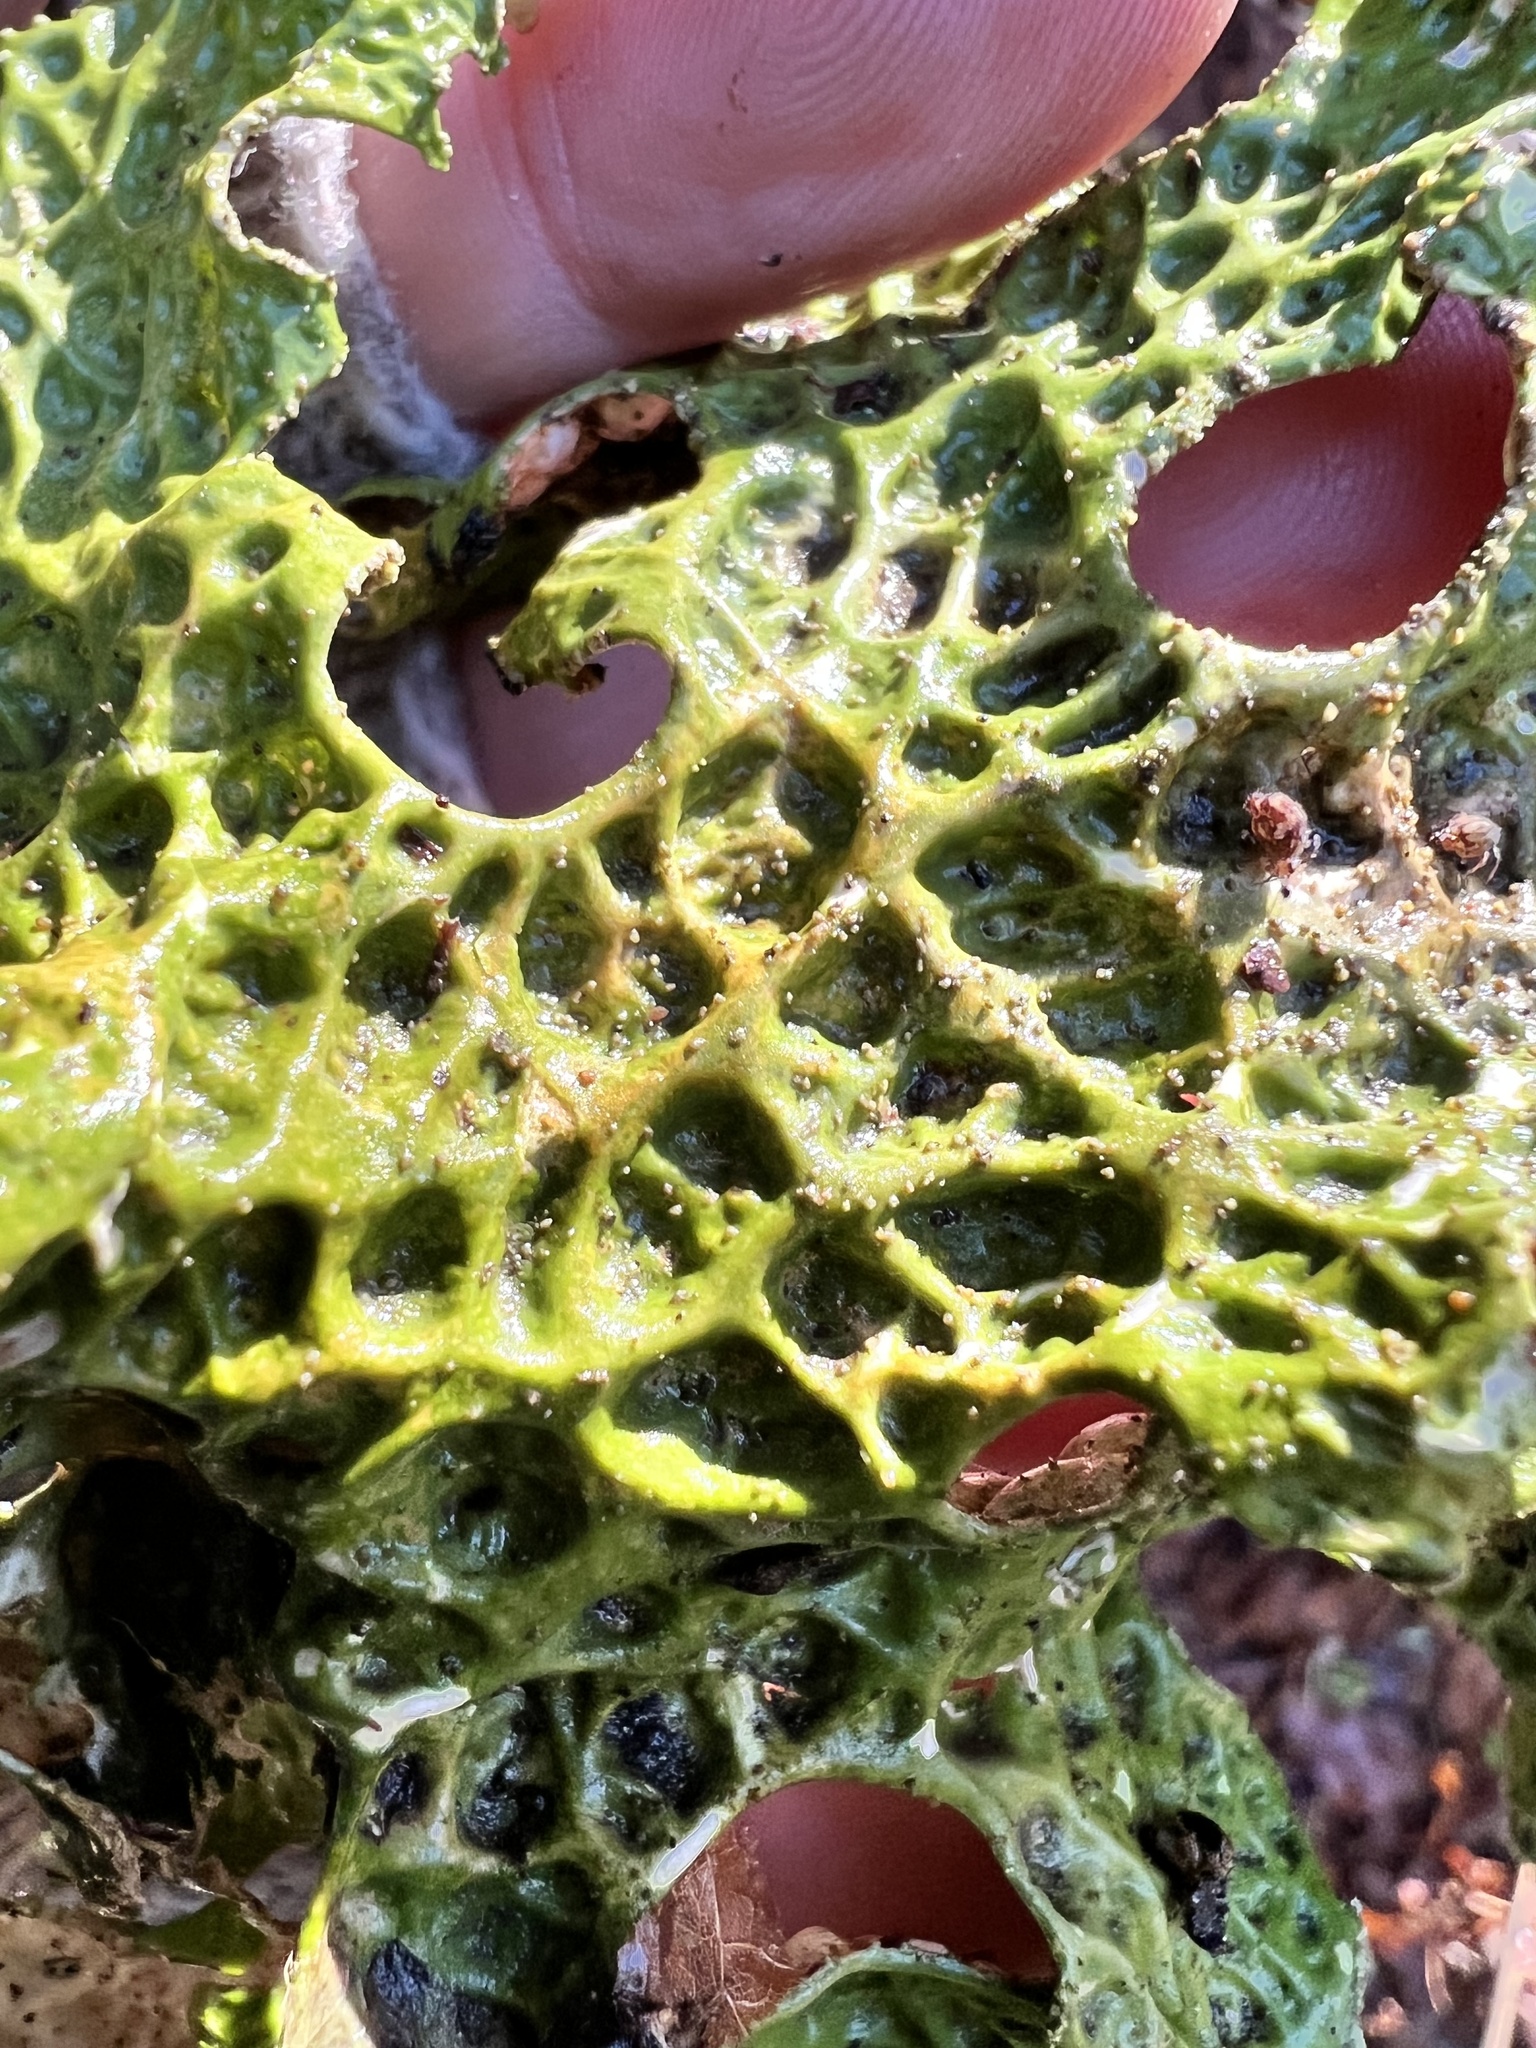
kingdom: Fungi
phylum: Ascomycota
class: Lecanoromycetes
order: Peltigerales
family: Lobariaceae
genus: Lobaria
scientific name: Lobaria pulmonaria
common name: Lungwort
